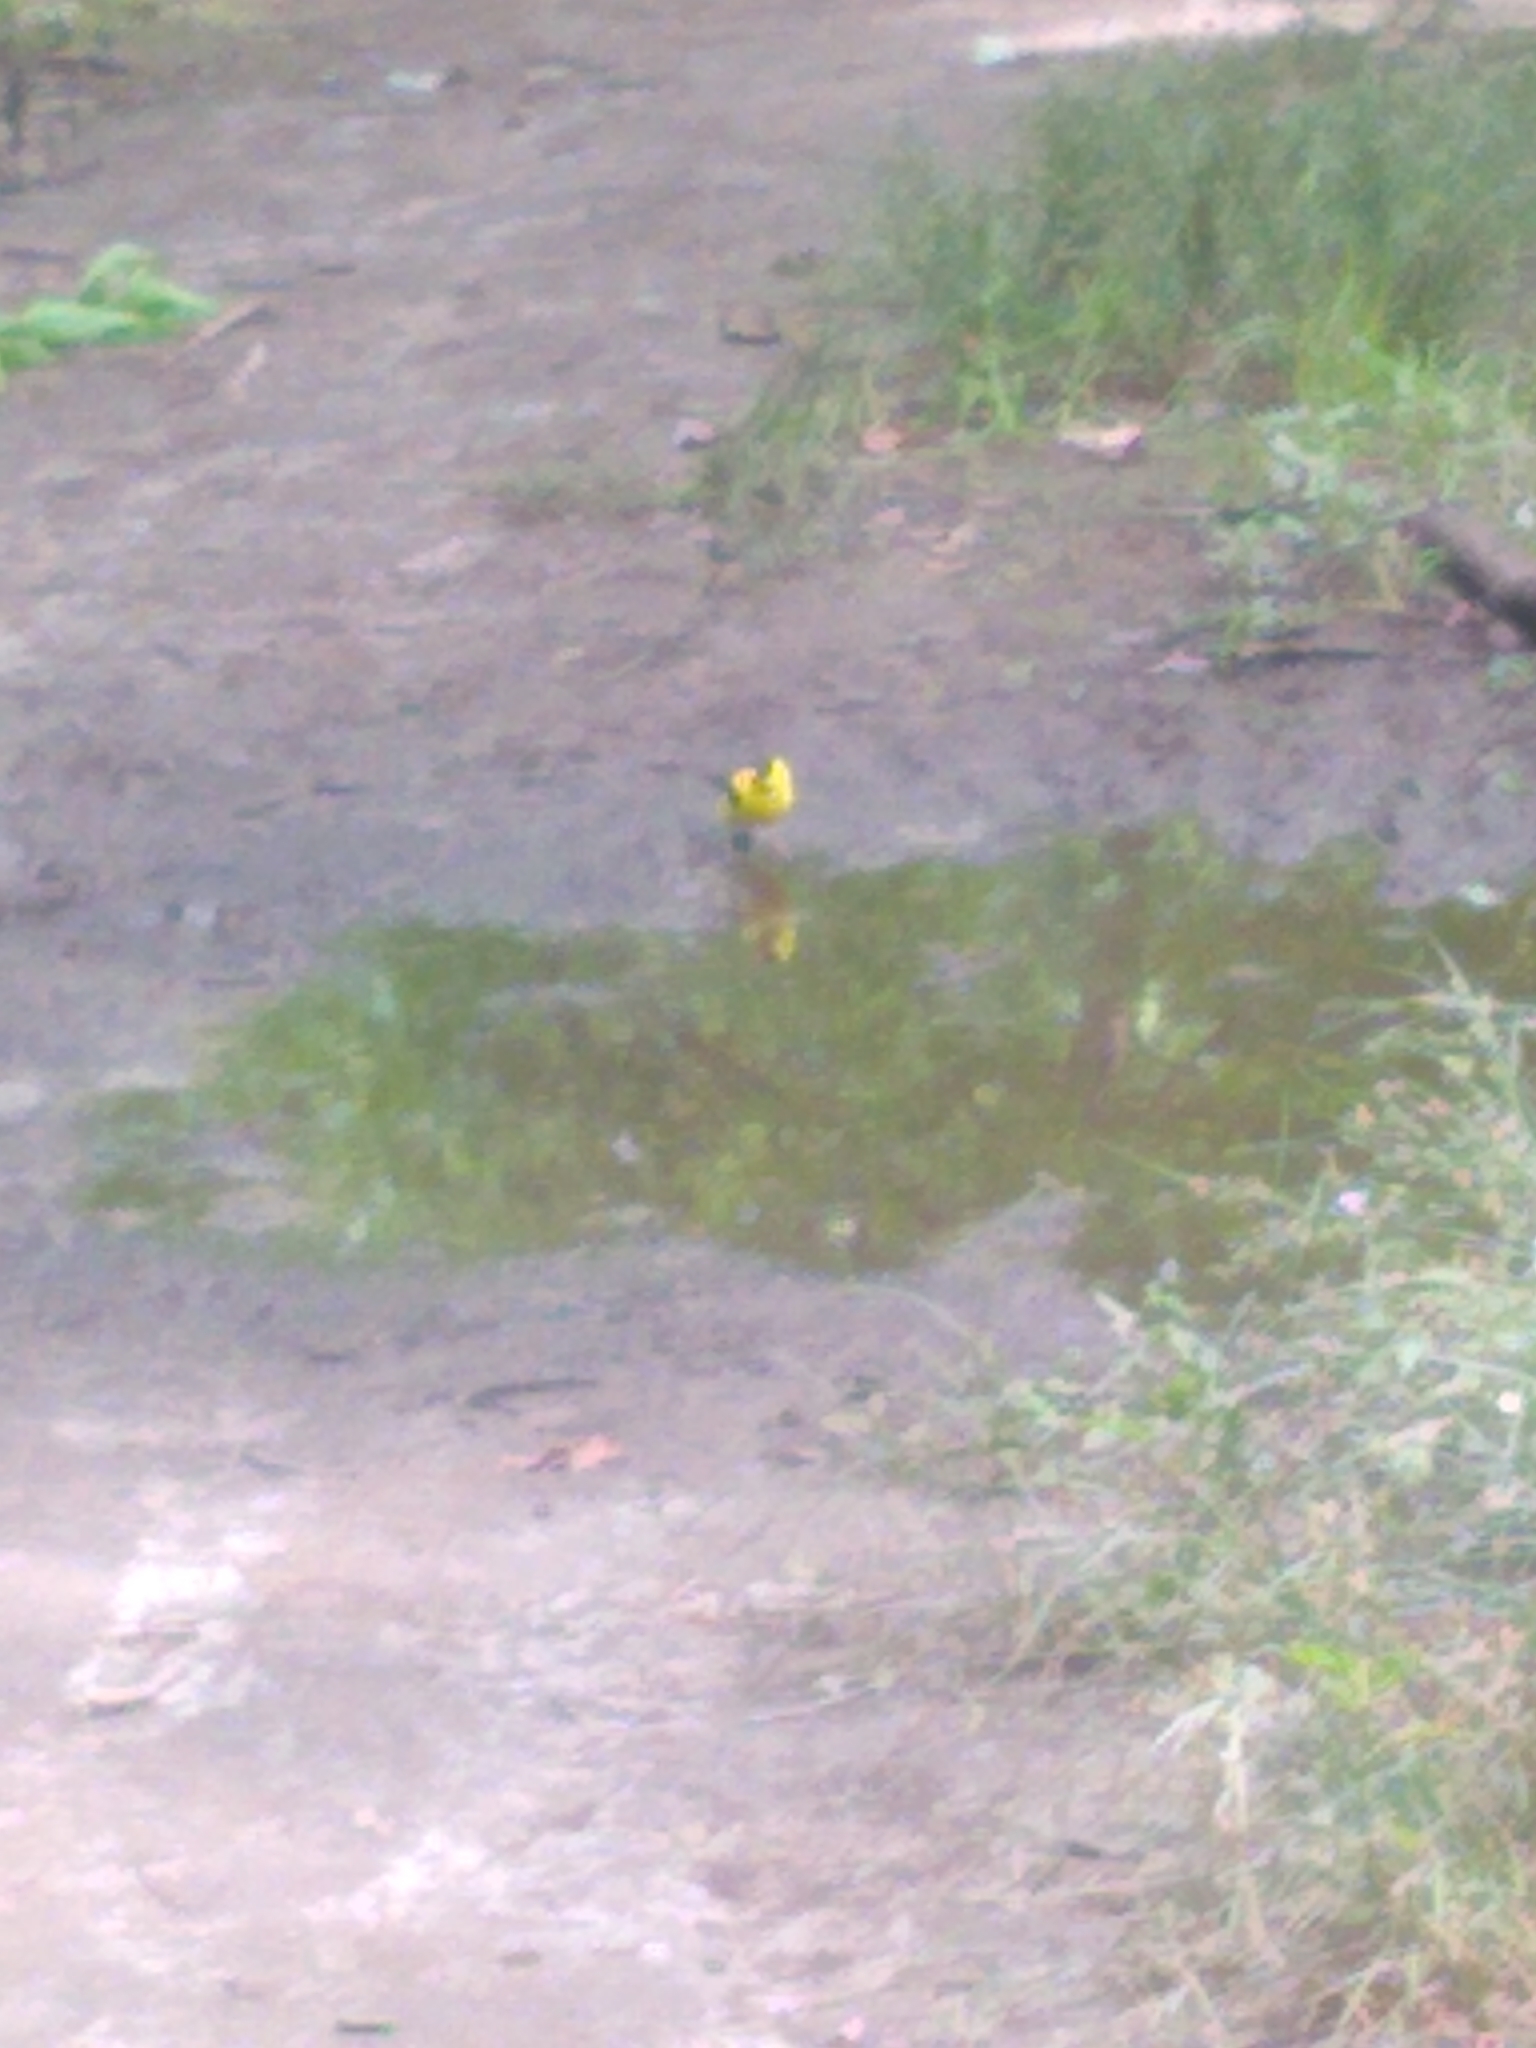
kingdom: Animalia
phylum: Chordata
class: Aves
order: Passeriformes
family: Fringillidae
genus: Spinus
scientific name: Spinus tristis
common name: American goldfinch
